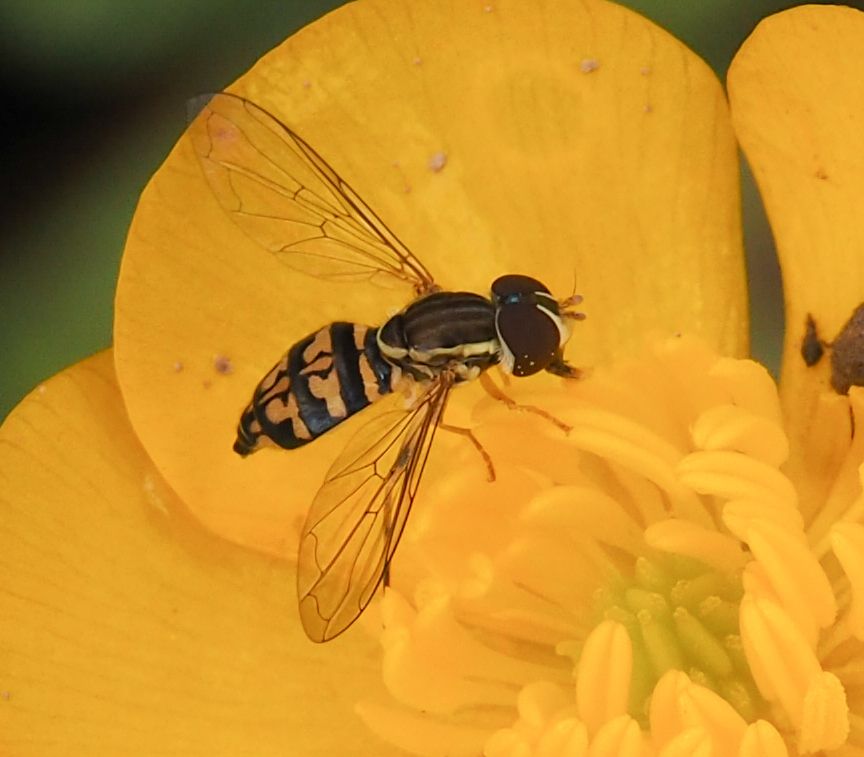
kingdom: Animalia
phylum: Arthropoda
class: Insecta
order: Diptera
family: Syrphidae
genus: Toxomerus
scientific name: Toxomerus geminatus
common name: Eastern calligrapher
